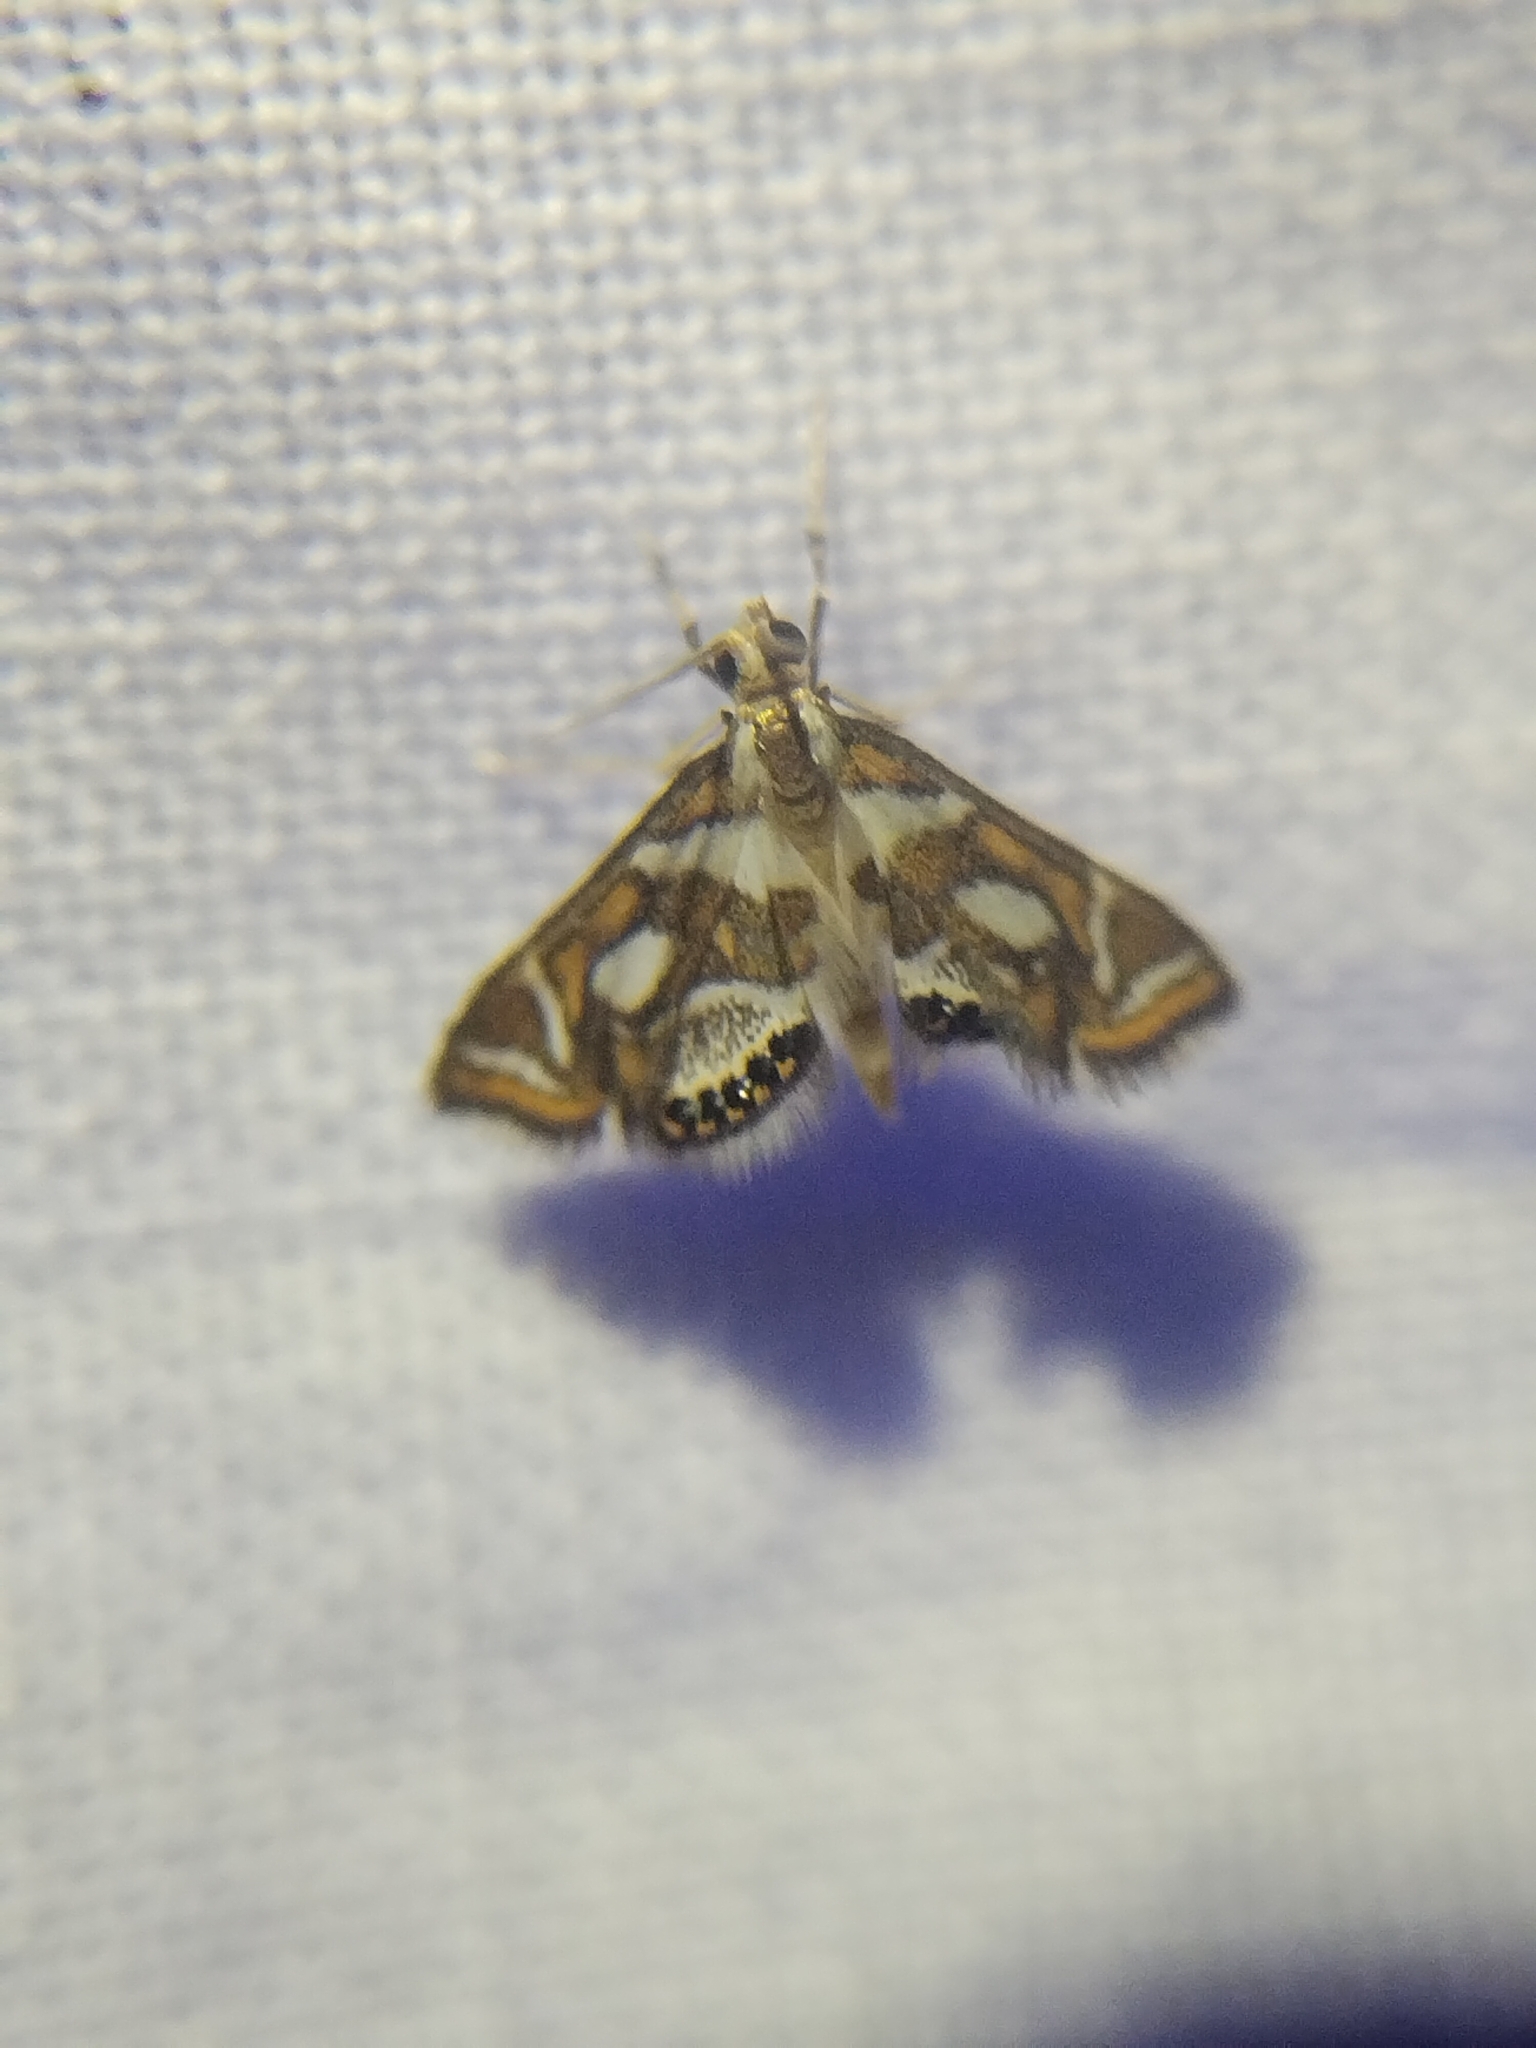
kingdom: Animalia
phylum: Arthropoda
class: Insecta
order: Lepidoptera
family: Crambidae
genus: Chrysendeton
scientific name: Chrysendeton medicinalis
